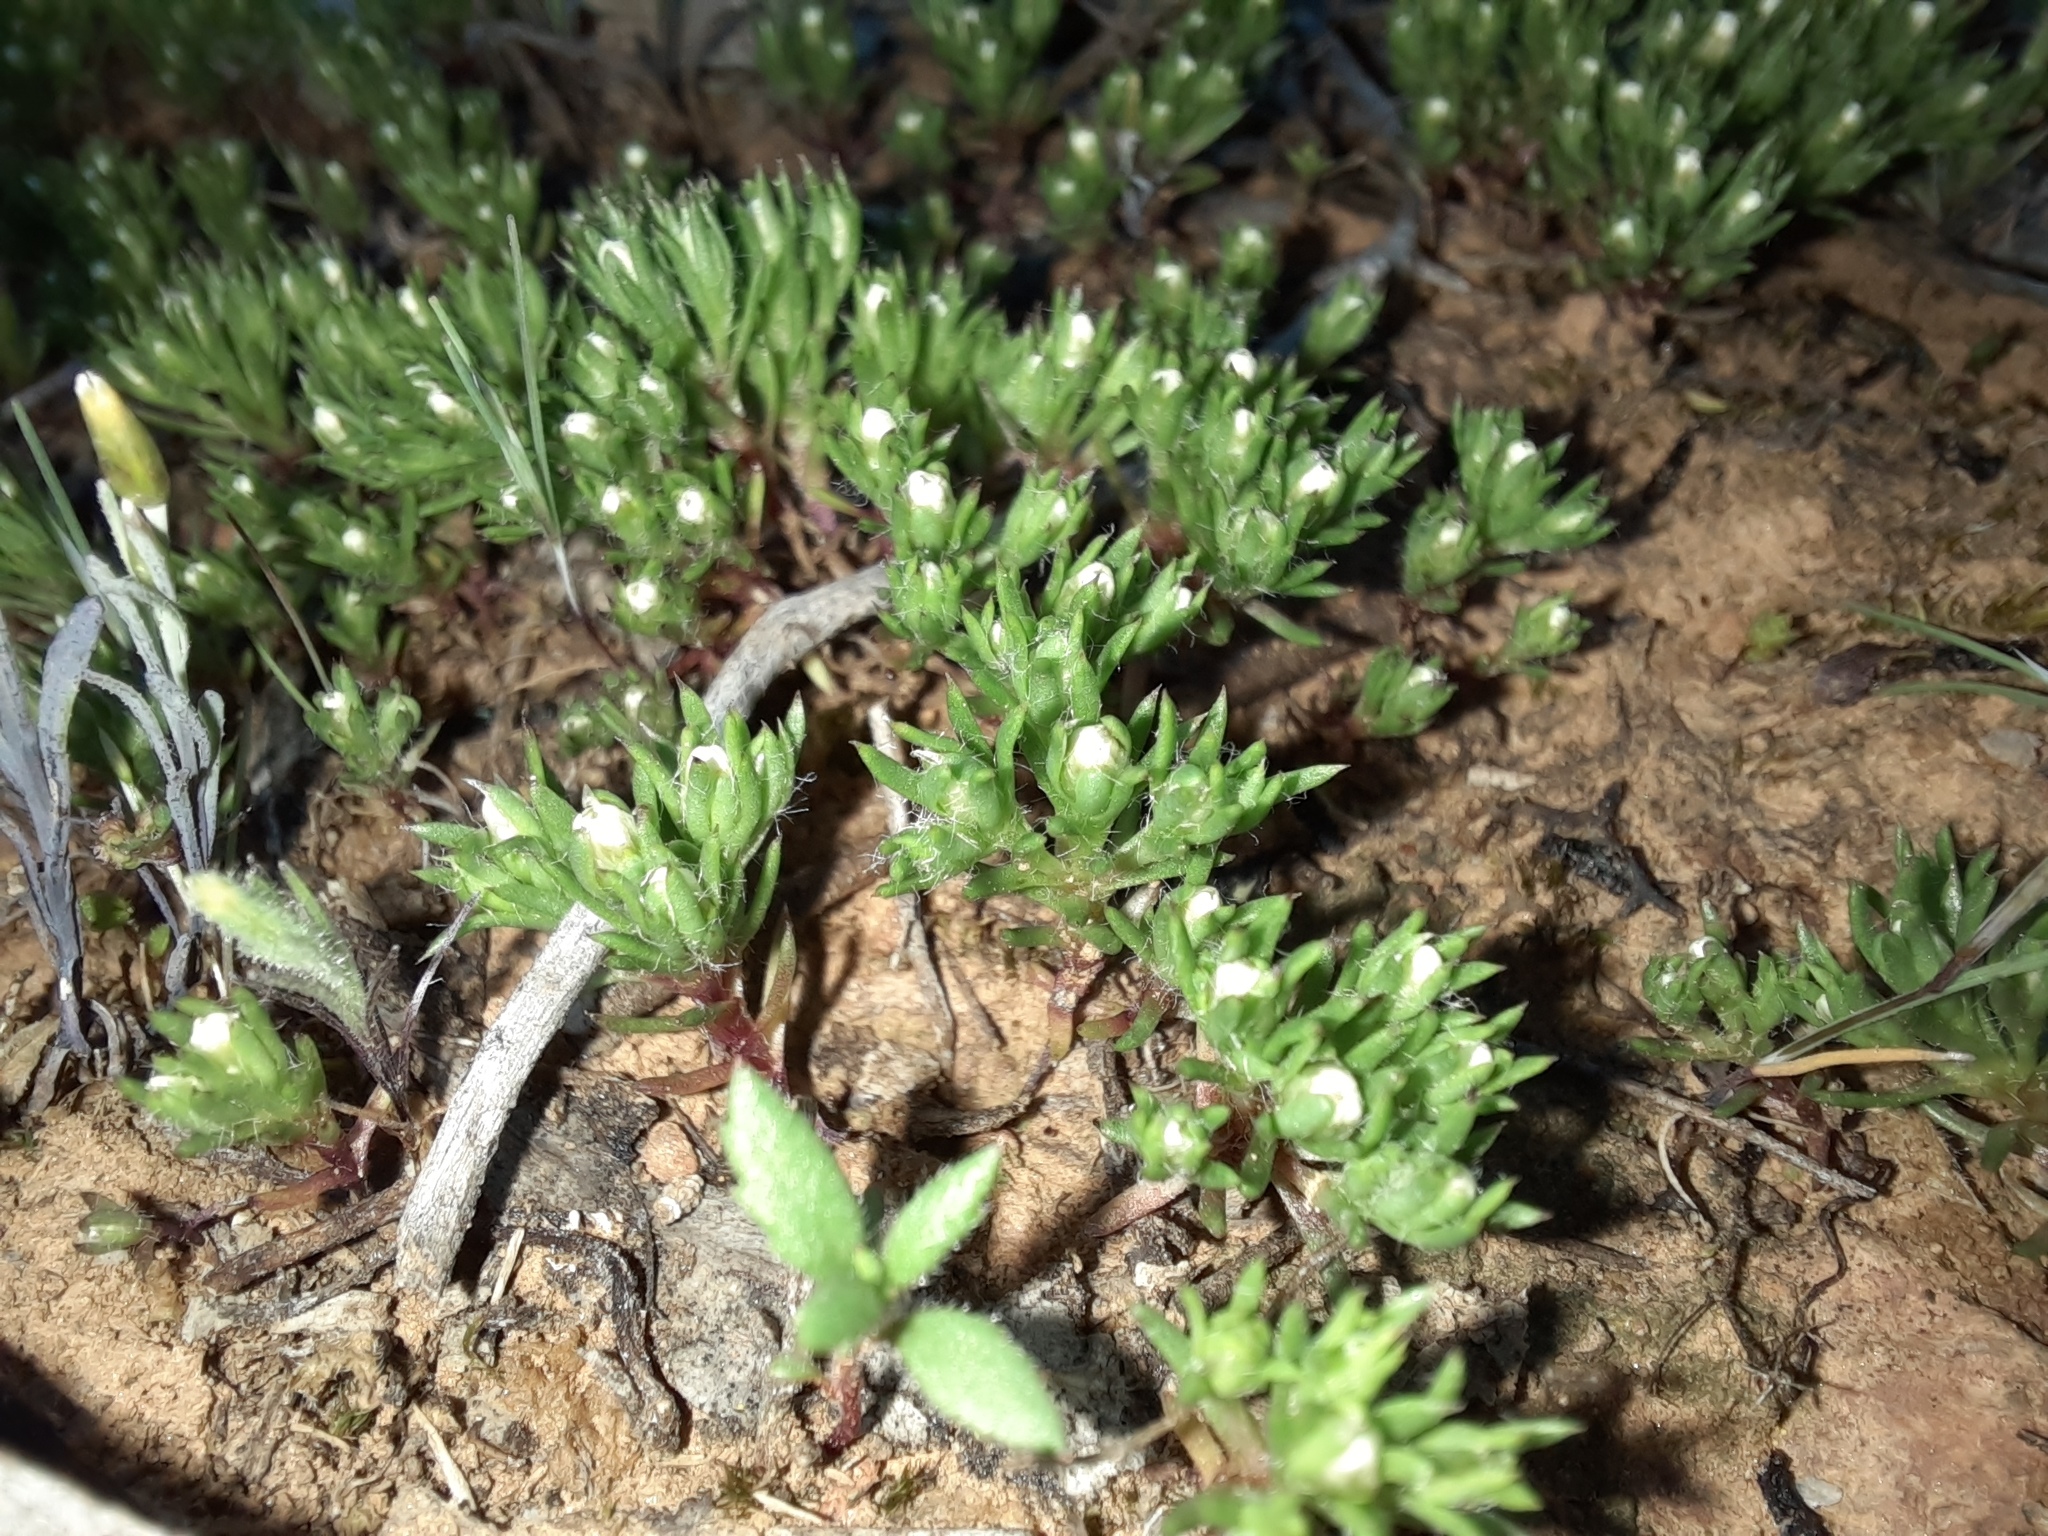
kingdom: Plantae
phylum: Tracheophyta
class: Magnoliopsida
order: Asterales
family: Asteraceae
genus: Hyalosperma
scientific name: Hyalosperma demissum
